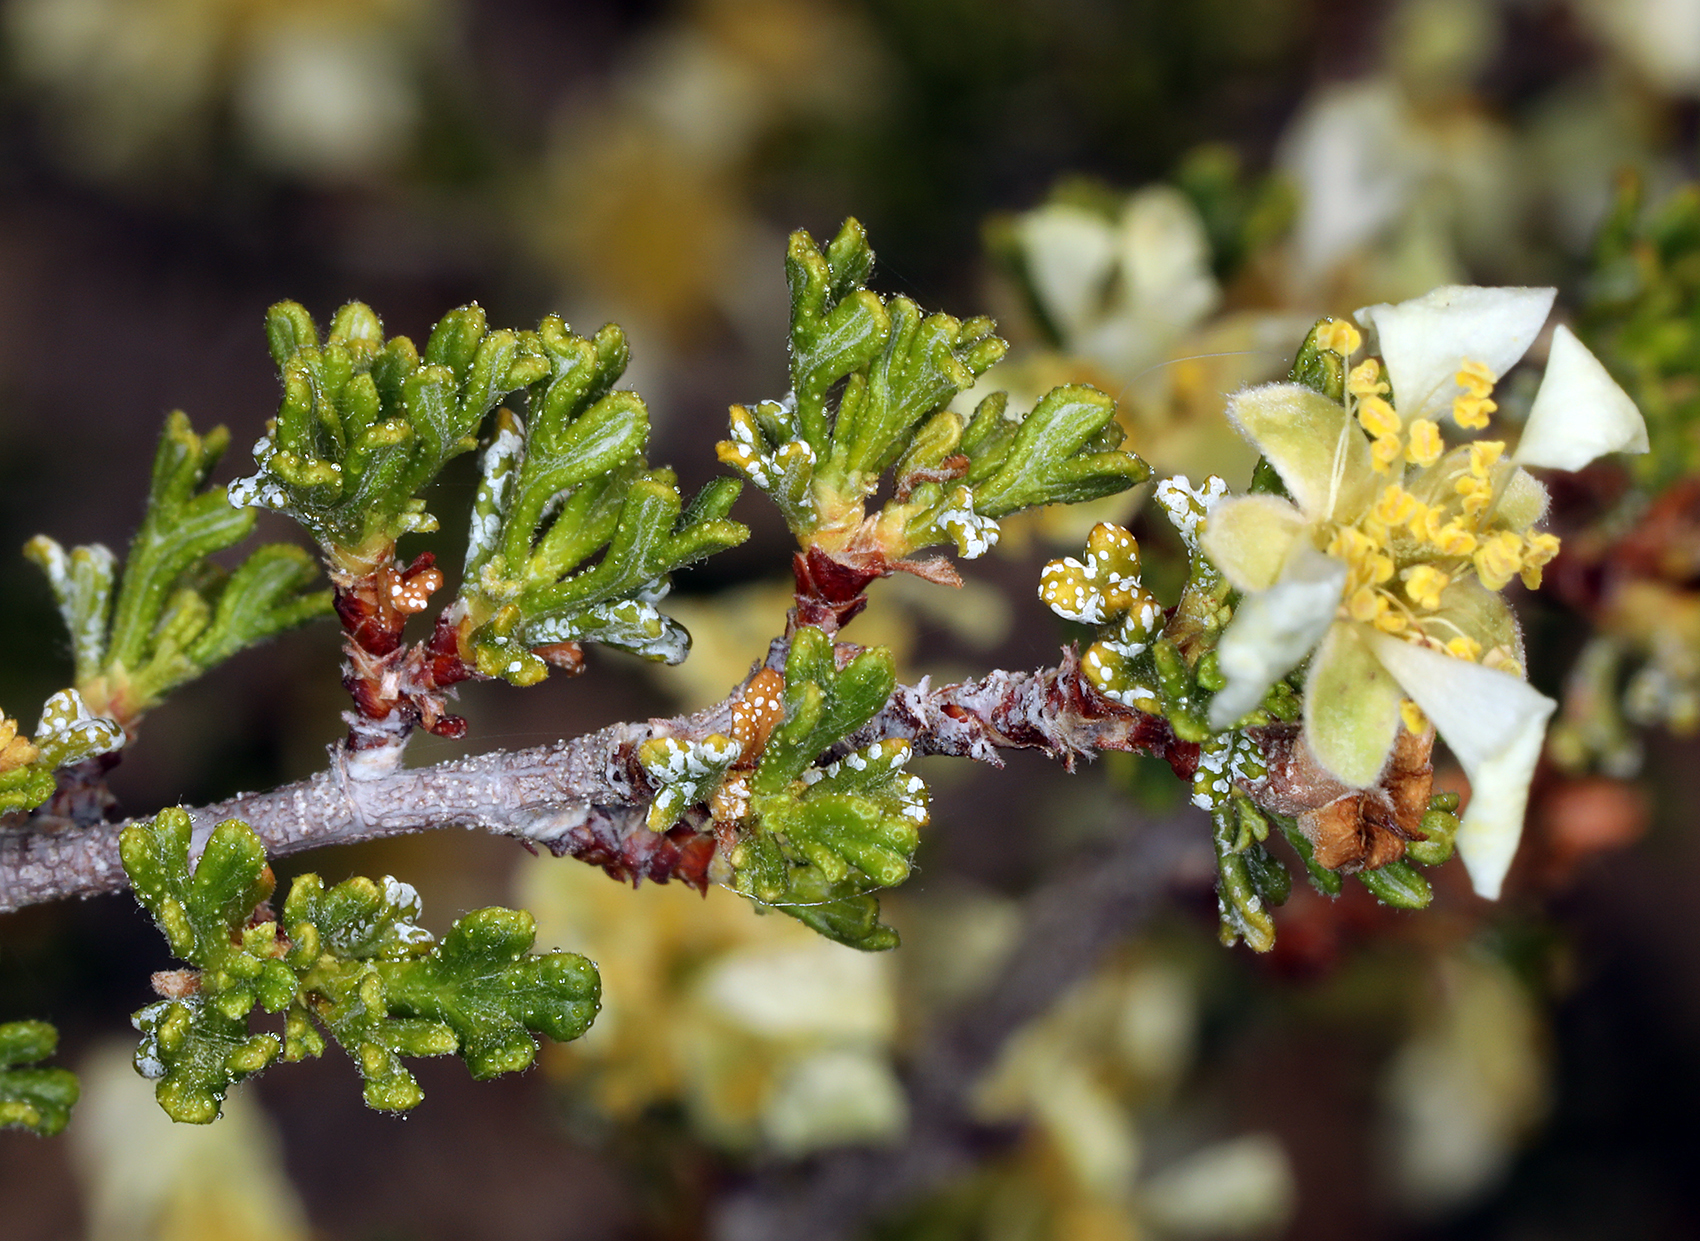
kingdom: Plantae
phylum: Tracheophyta
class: Magnoliopsida
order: Rosales
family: Rosaceae
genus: Purshia
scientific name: Purshia glandulosa
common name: Desert bitterbrush
